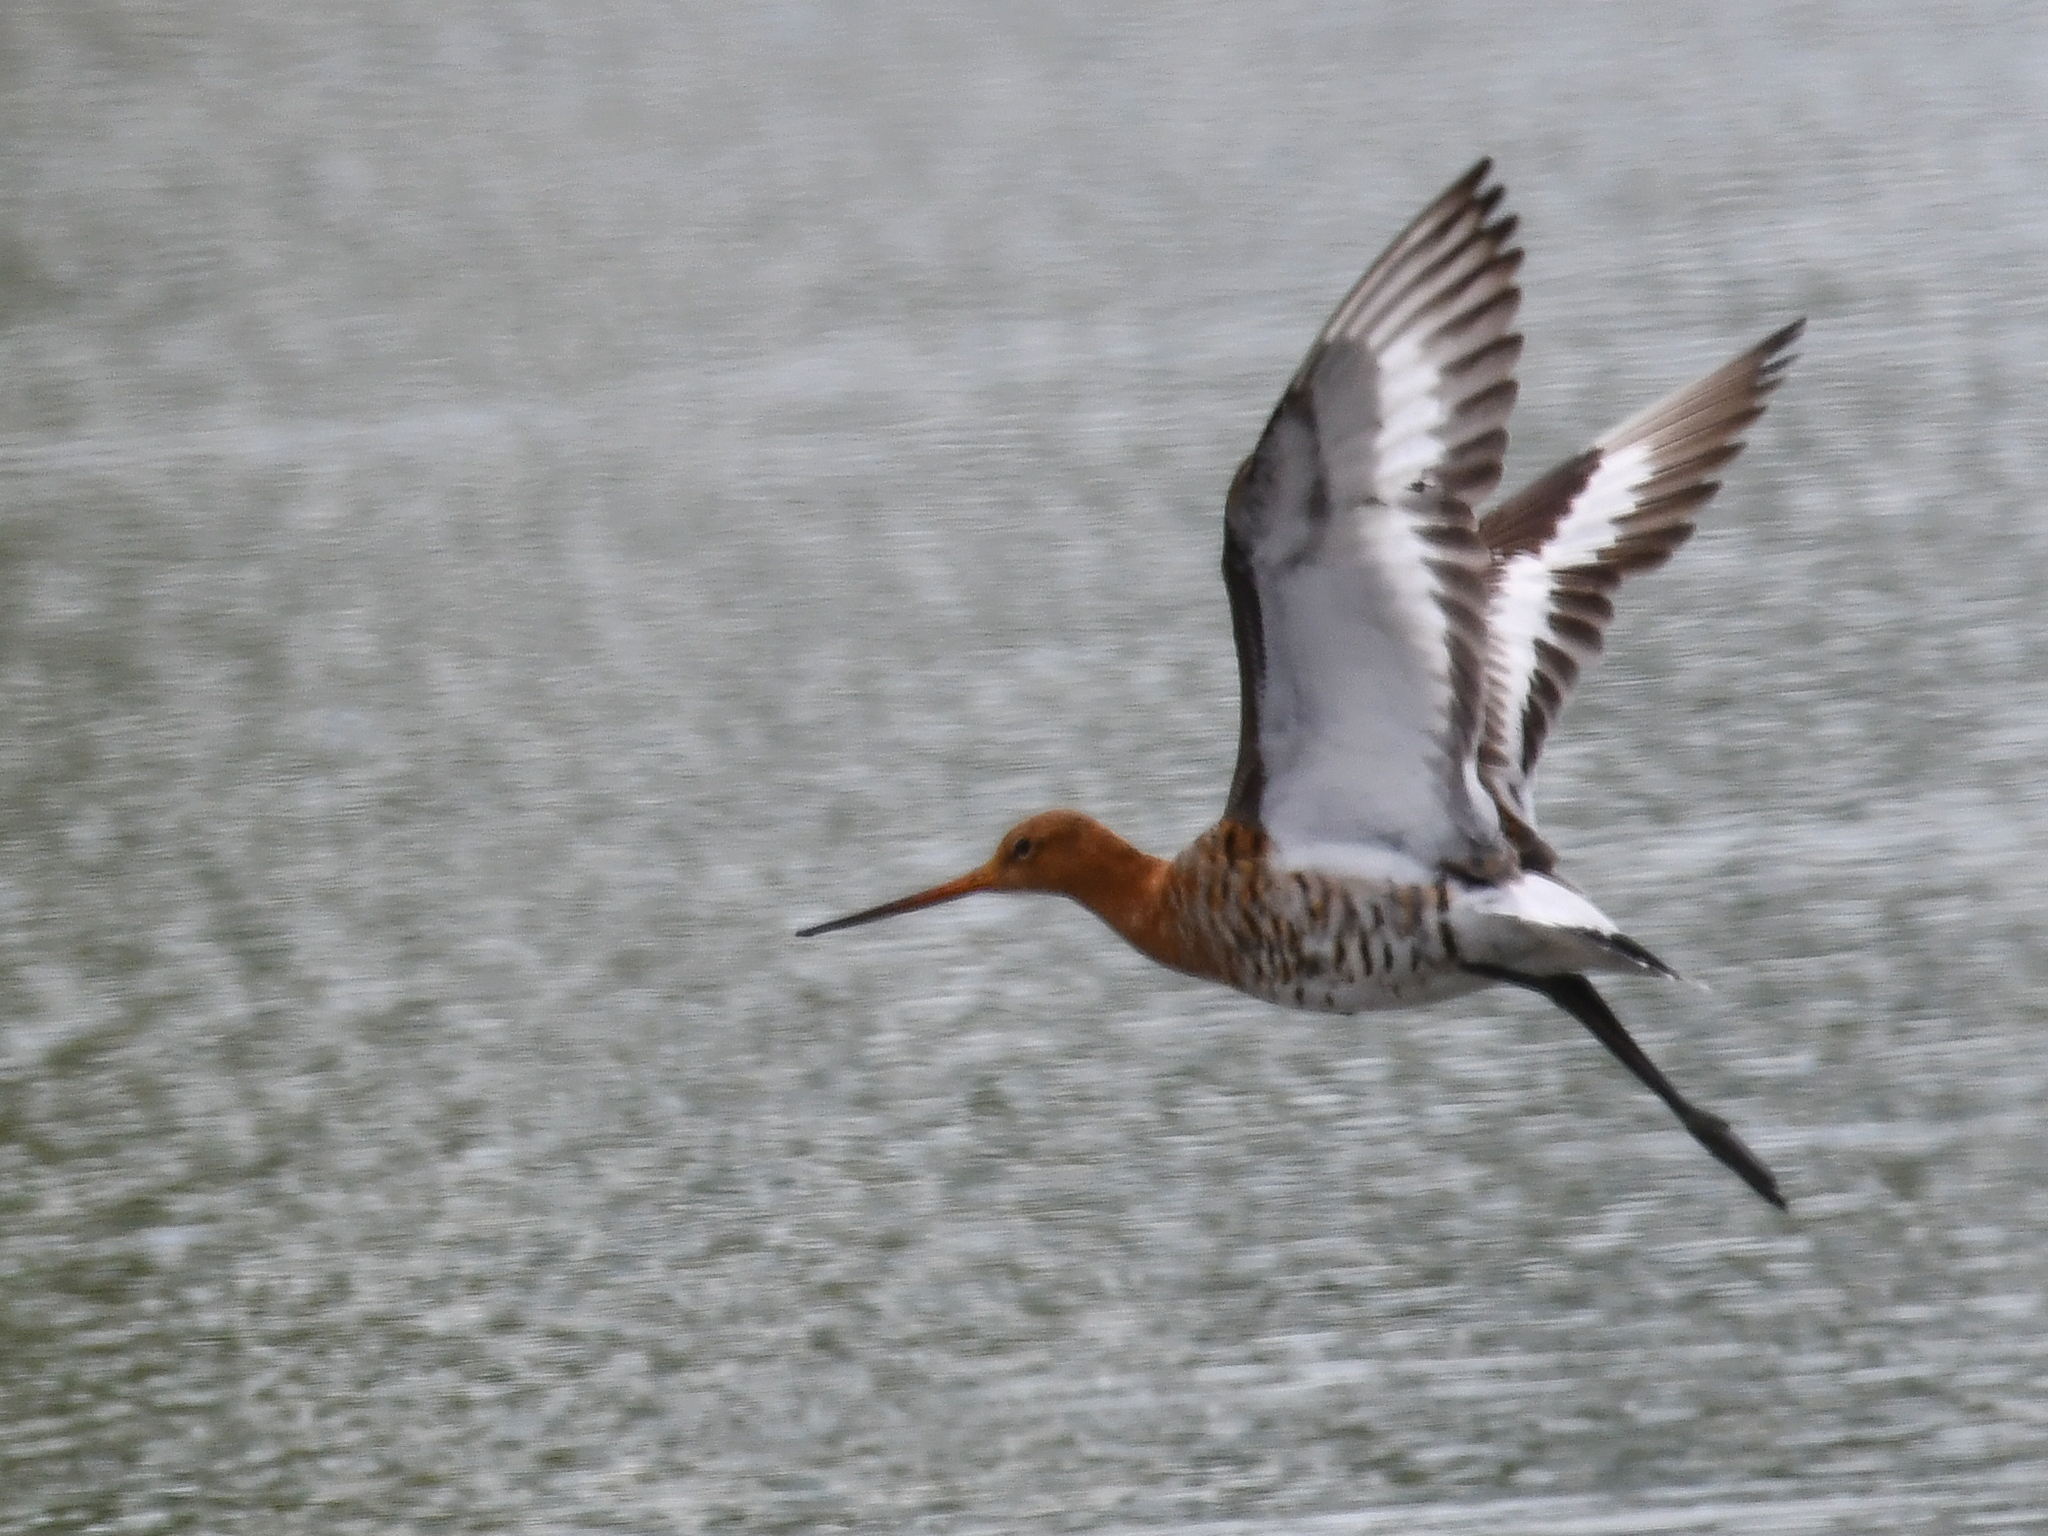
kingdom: Animalia
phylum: Chordata
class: Aves
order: Charadriiformes
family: Scolopacidae
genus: Limosa
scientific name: Limosa limosa
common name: Black-tailed godwit
